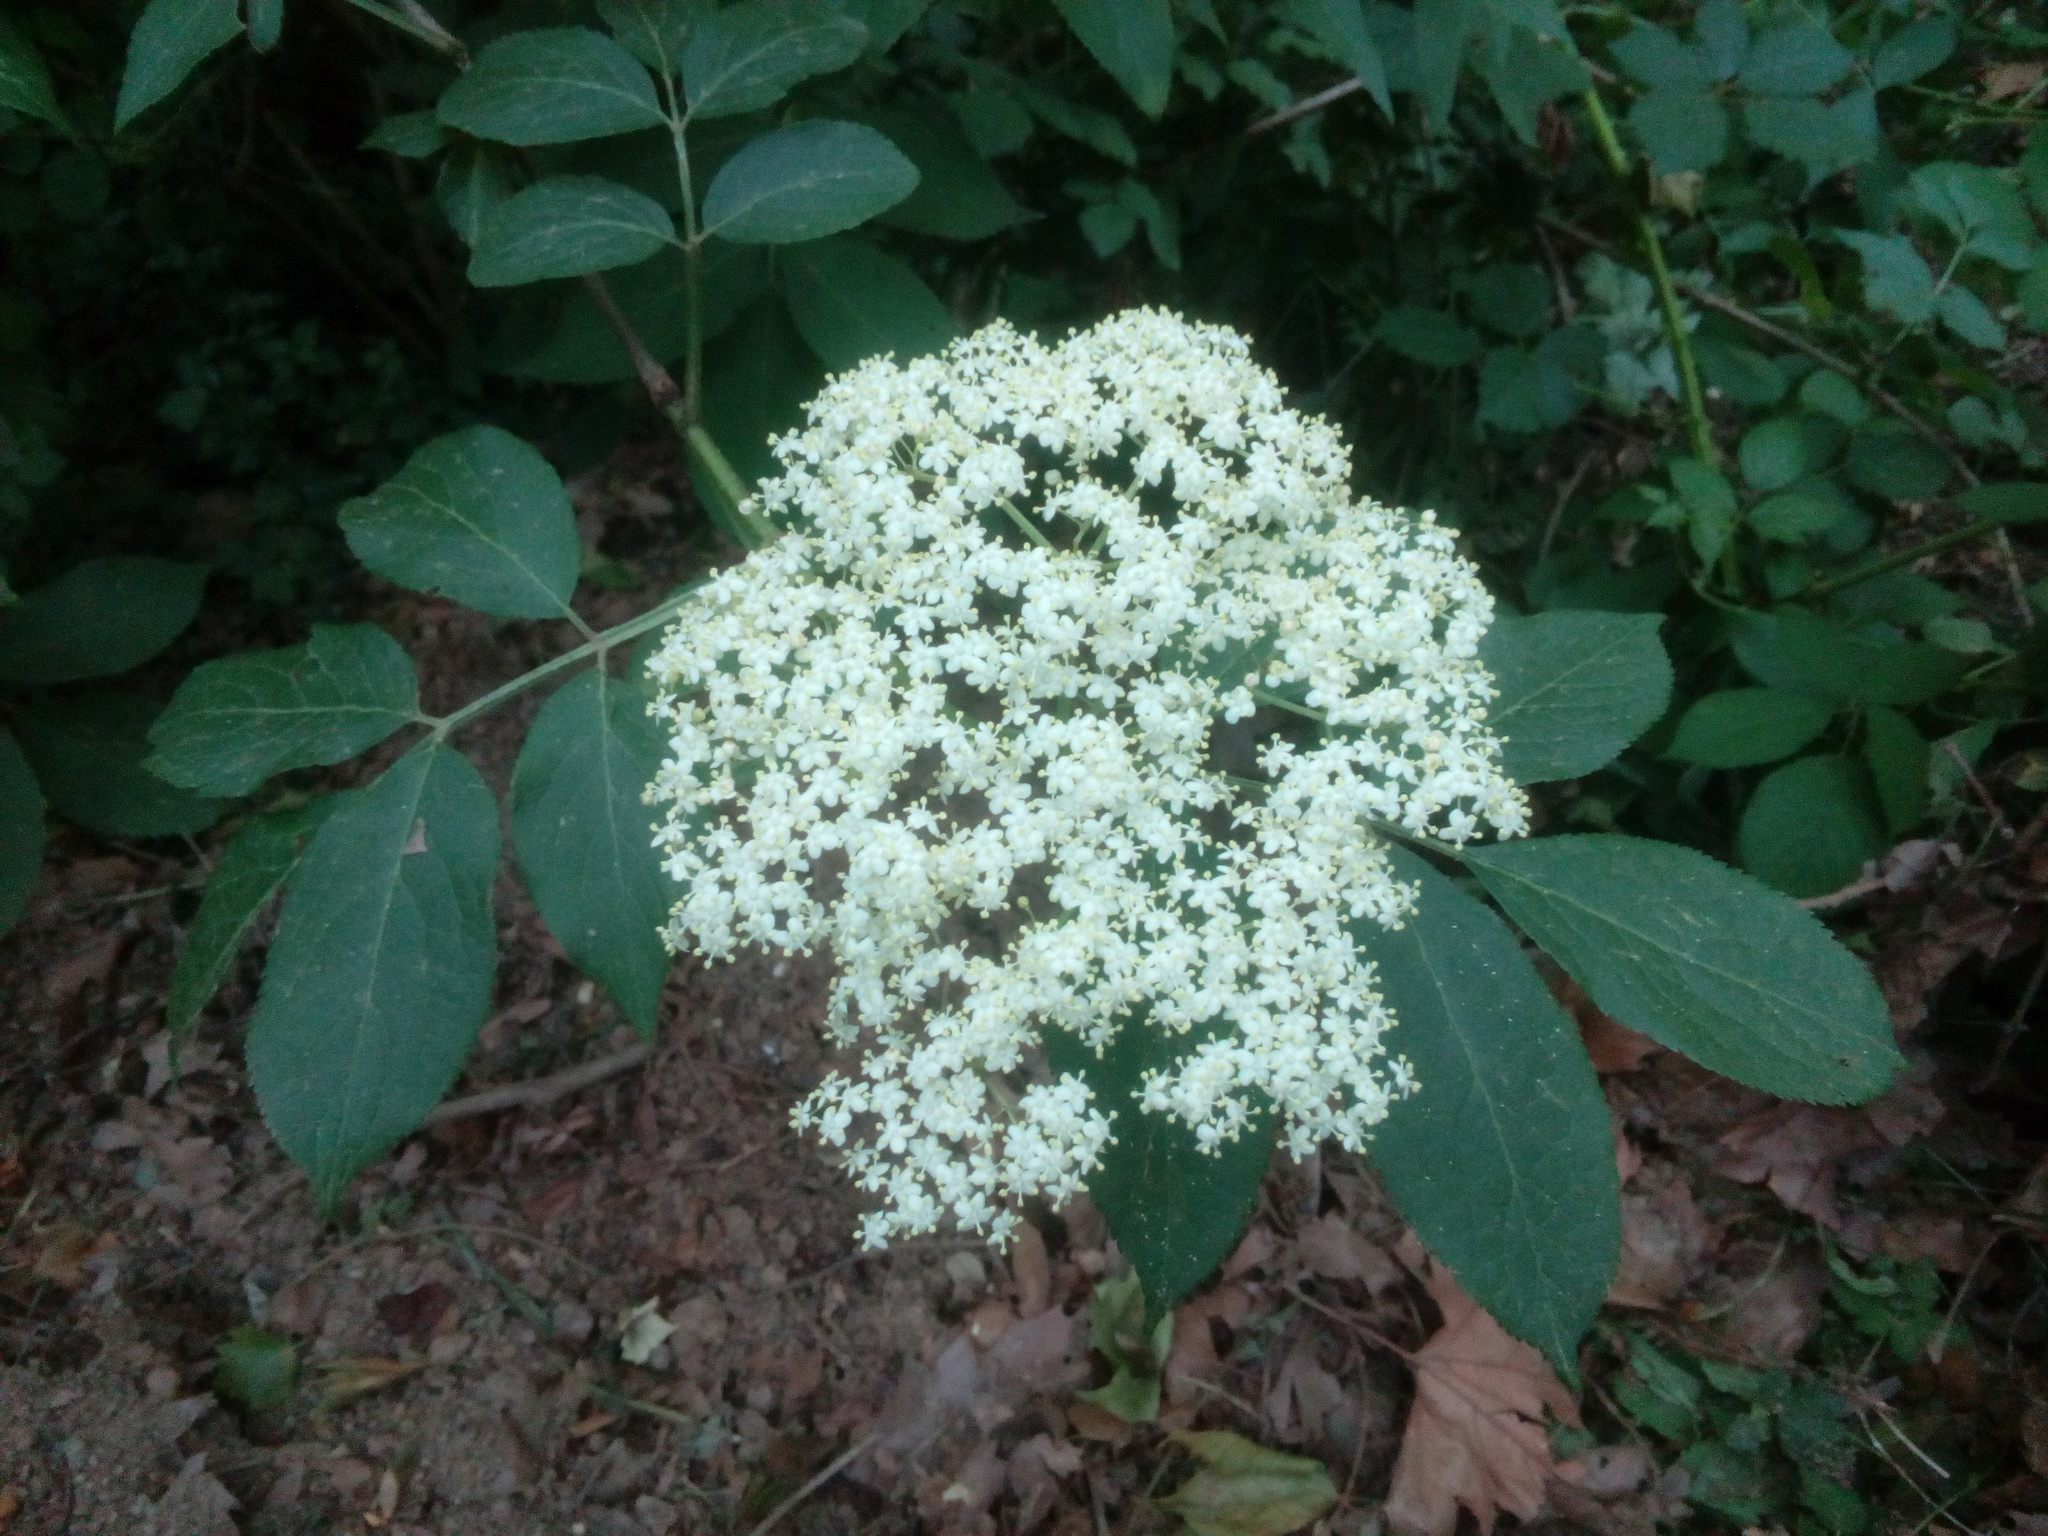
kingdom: Plantae
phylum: Tracheophyta
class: Magnoliopsida
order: Dipsacales
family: Viburnaceae
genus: Sambucus
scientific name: Sambucus nigra
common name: Elder
